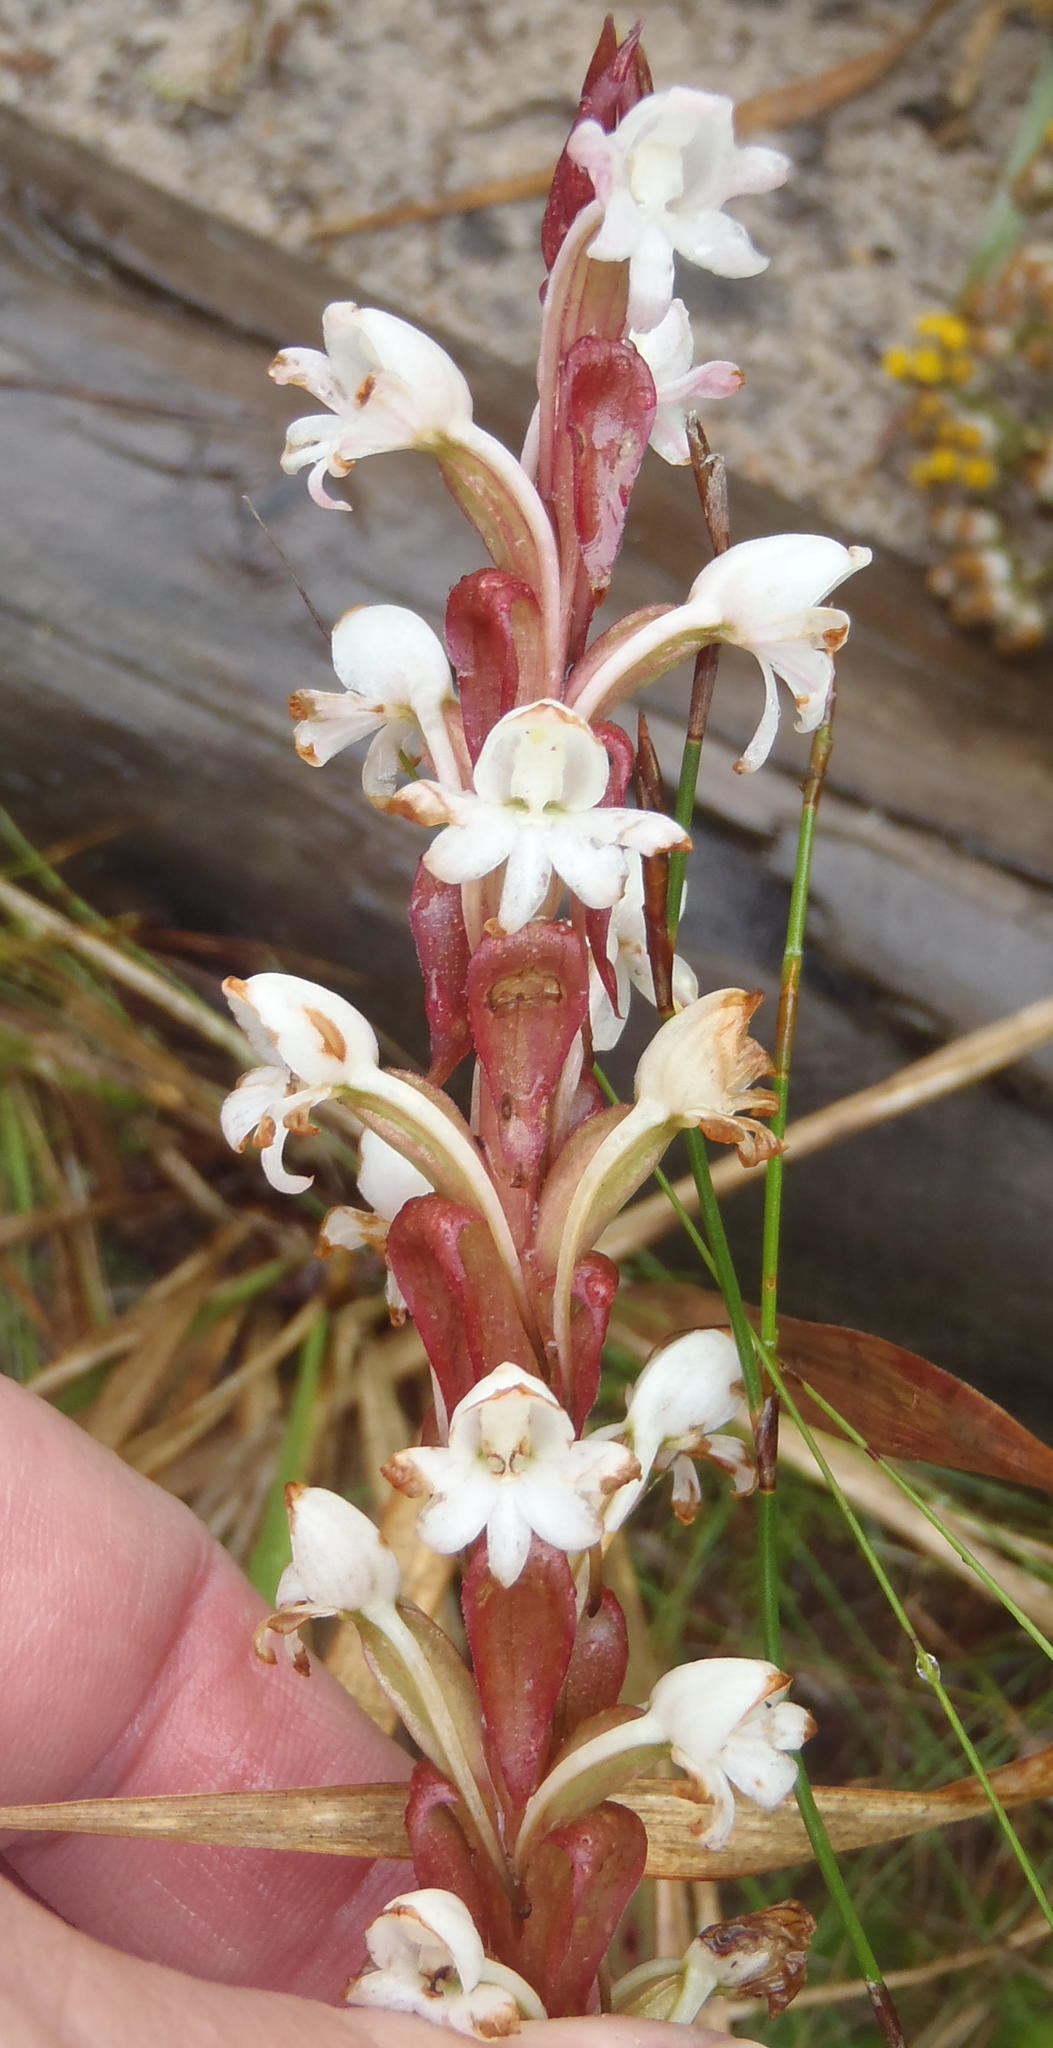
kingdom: Plantae
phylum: Tracheophyta
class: Liliopsida
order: Asparagales
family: Orchidaceae
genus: Satyrium
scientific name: Satyrium acuminatum
